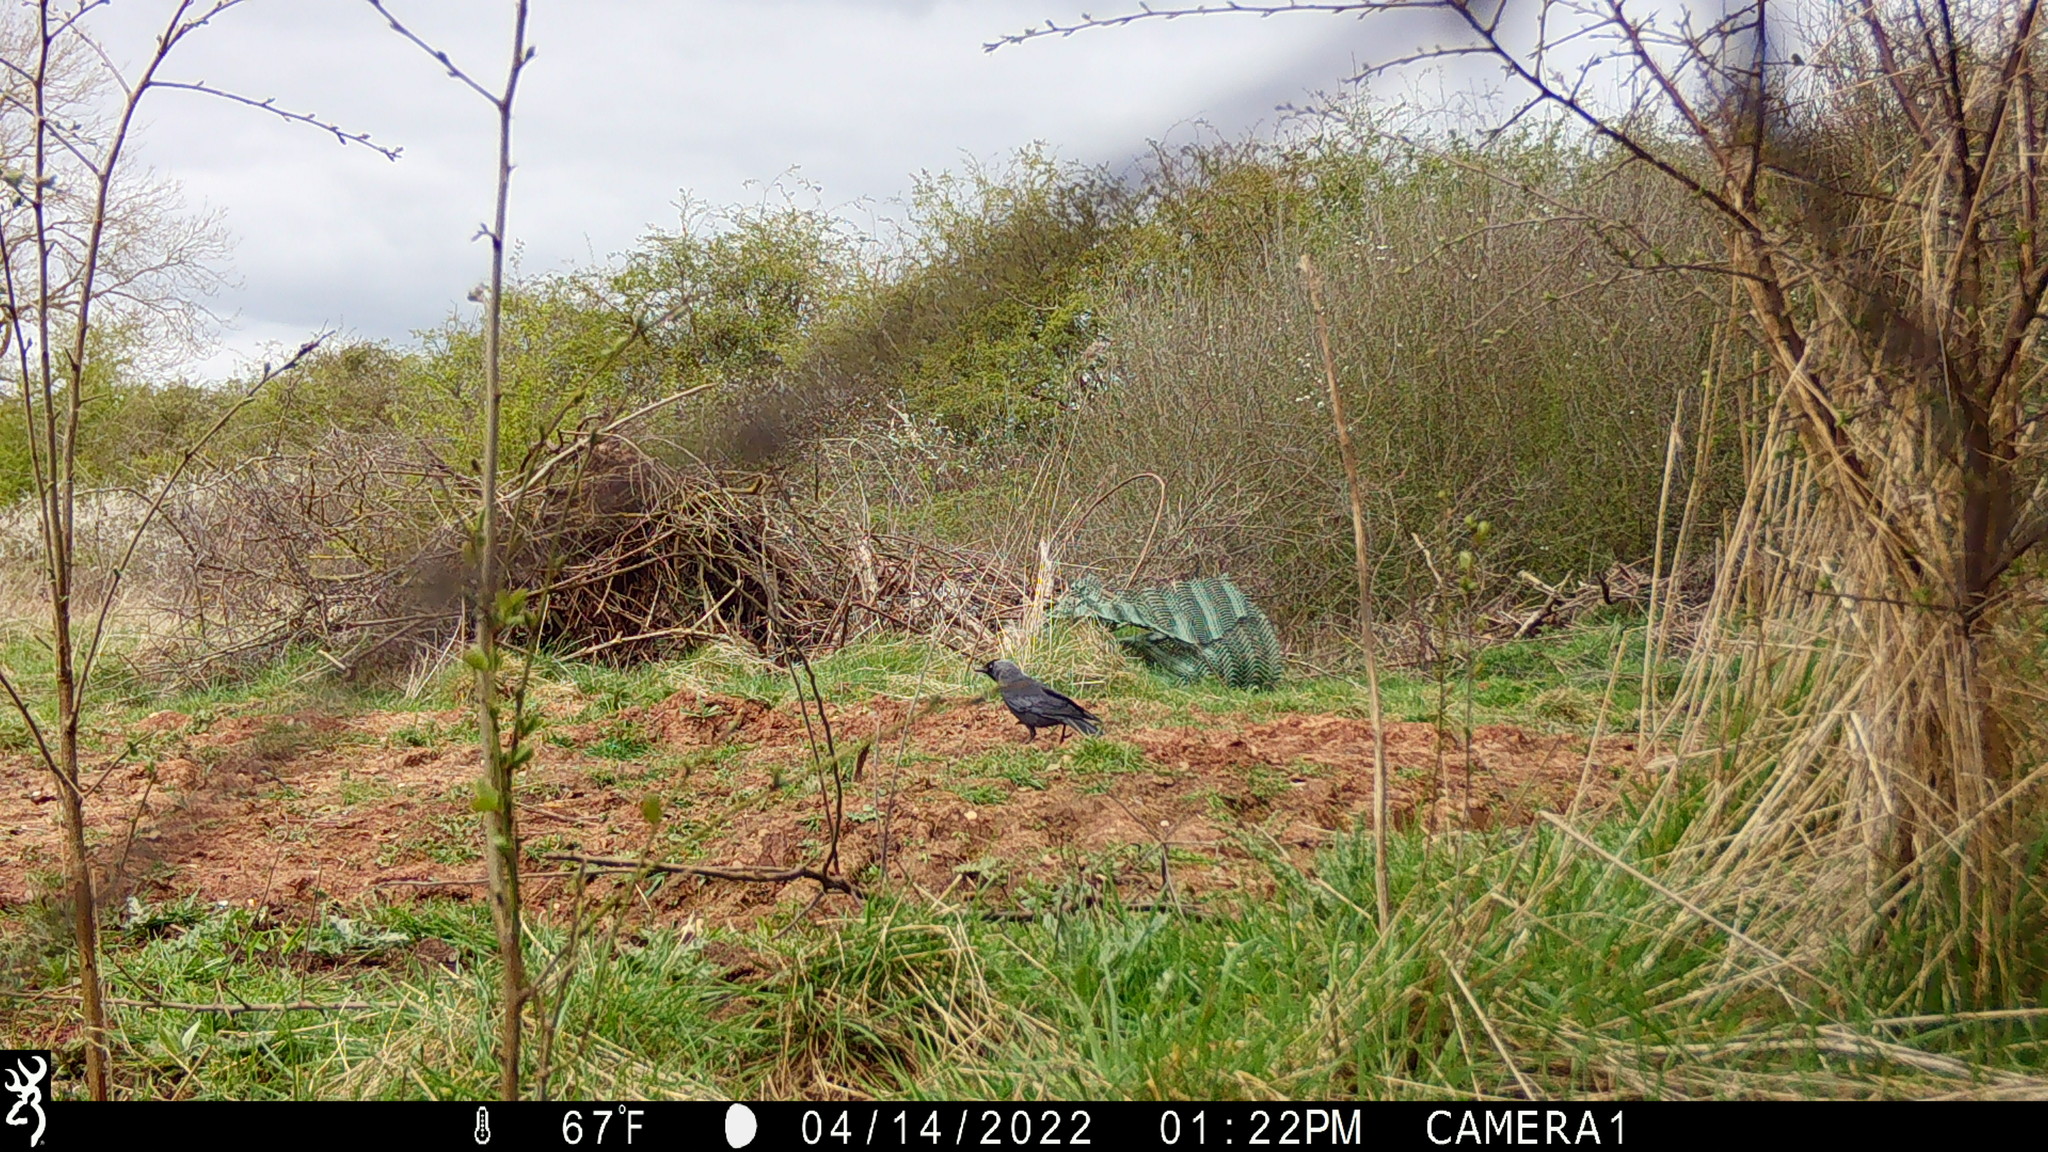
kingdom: Animalia
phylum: Chordata
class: Aves
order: Passeriformes
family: Corvidae
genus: Coloeus
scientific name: Coloeus monedula
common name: Western jackdaw
